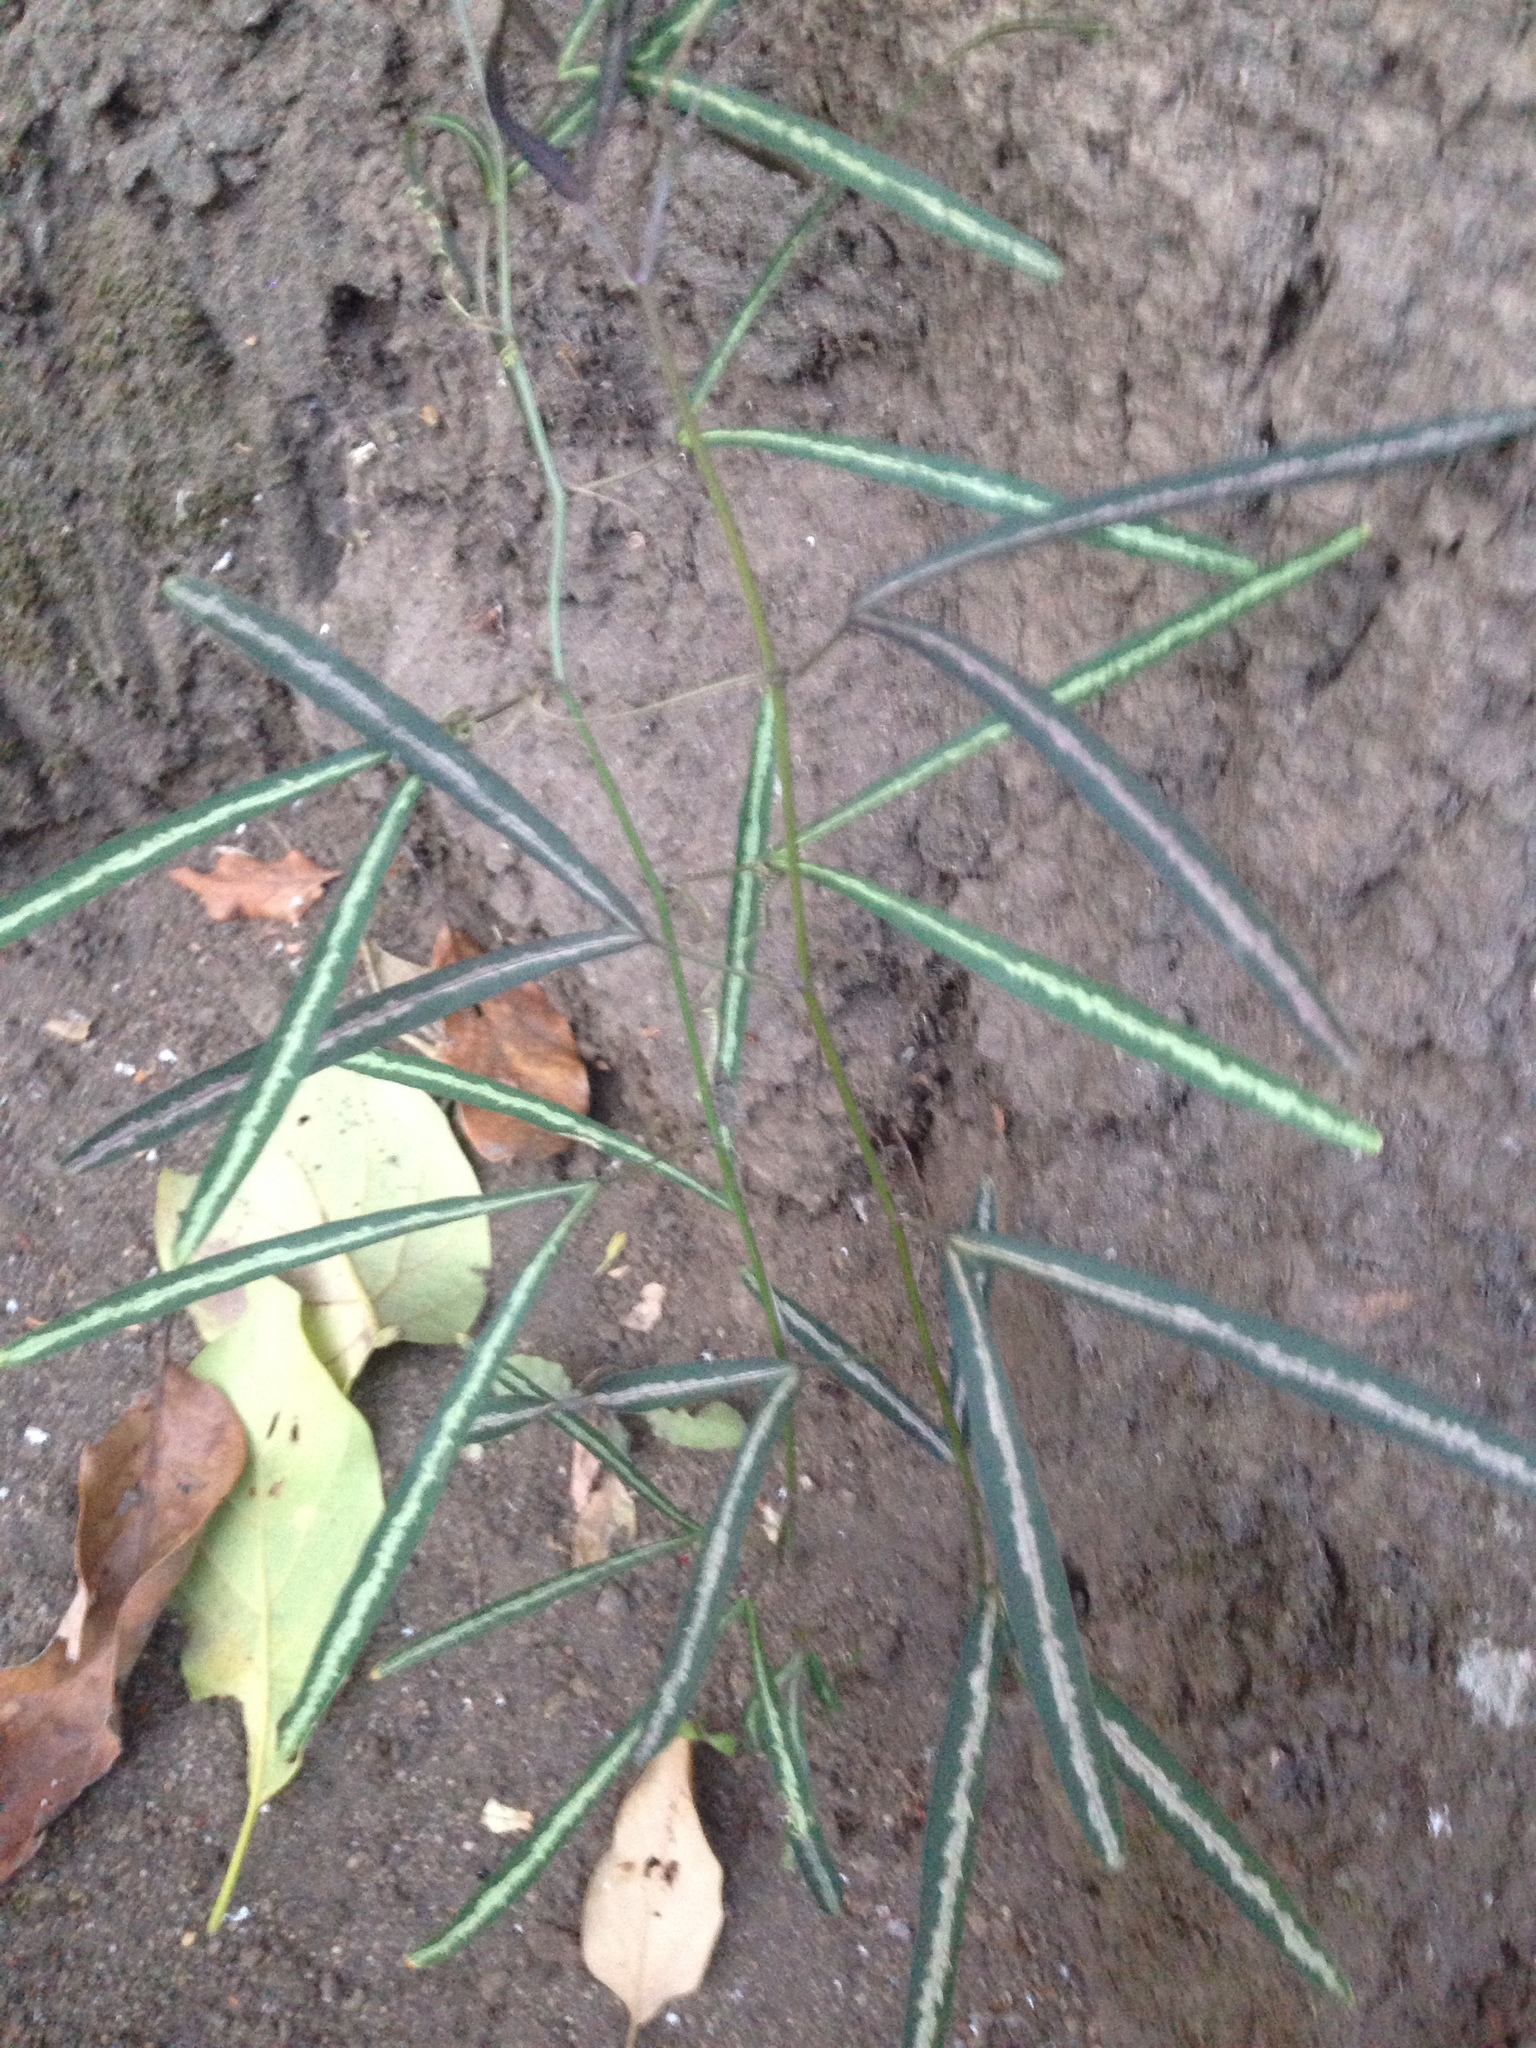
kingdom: Plantae
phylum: Tracheophyta
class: Magnoliopsida
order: Malpighiales
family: Passifloraceae
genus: Passiflora
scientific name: Passiflora ornithoura
